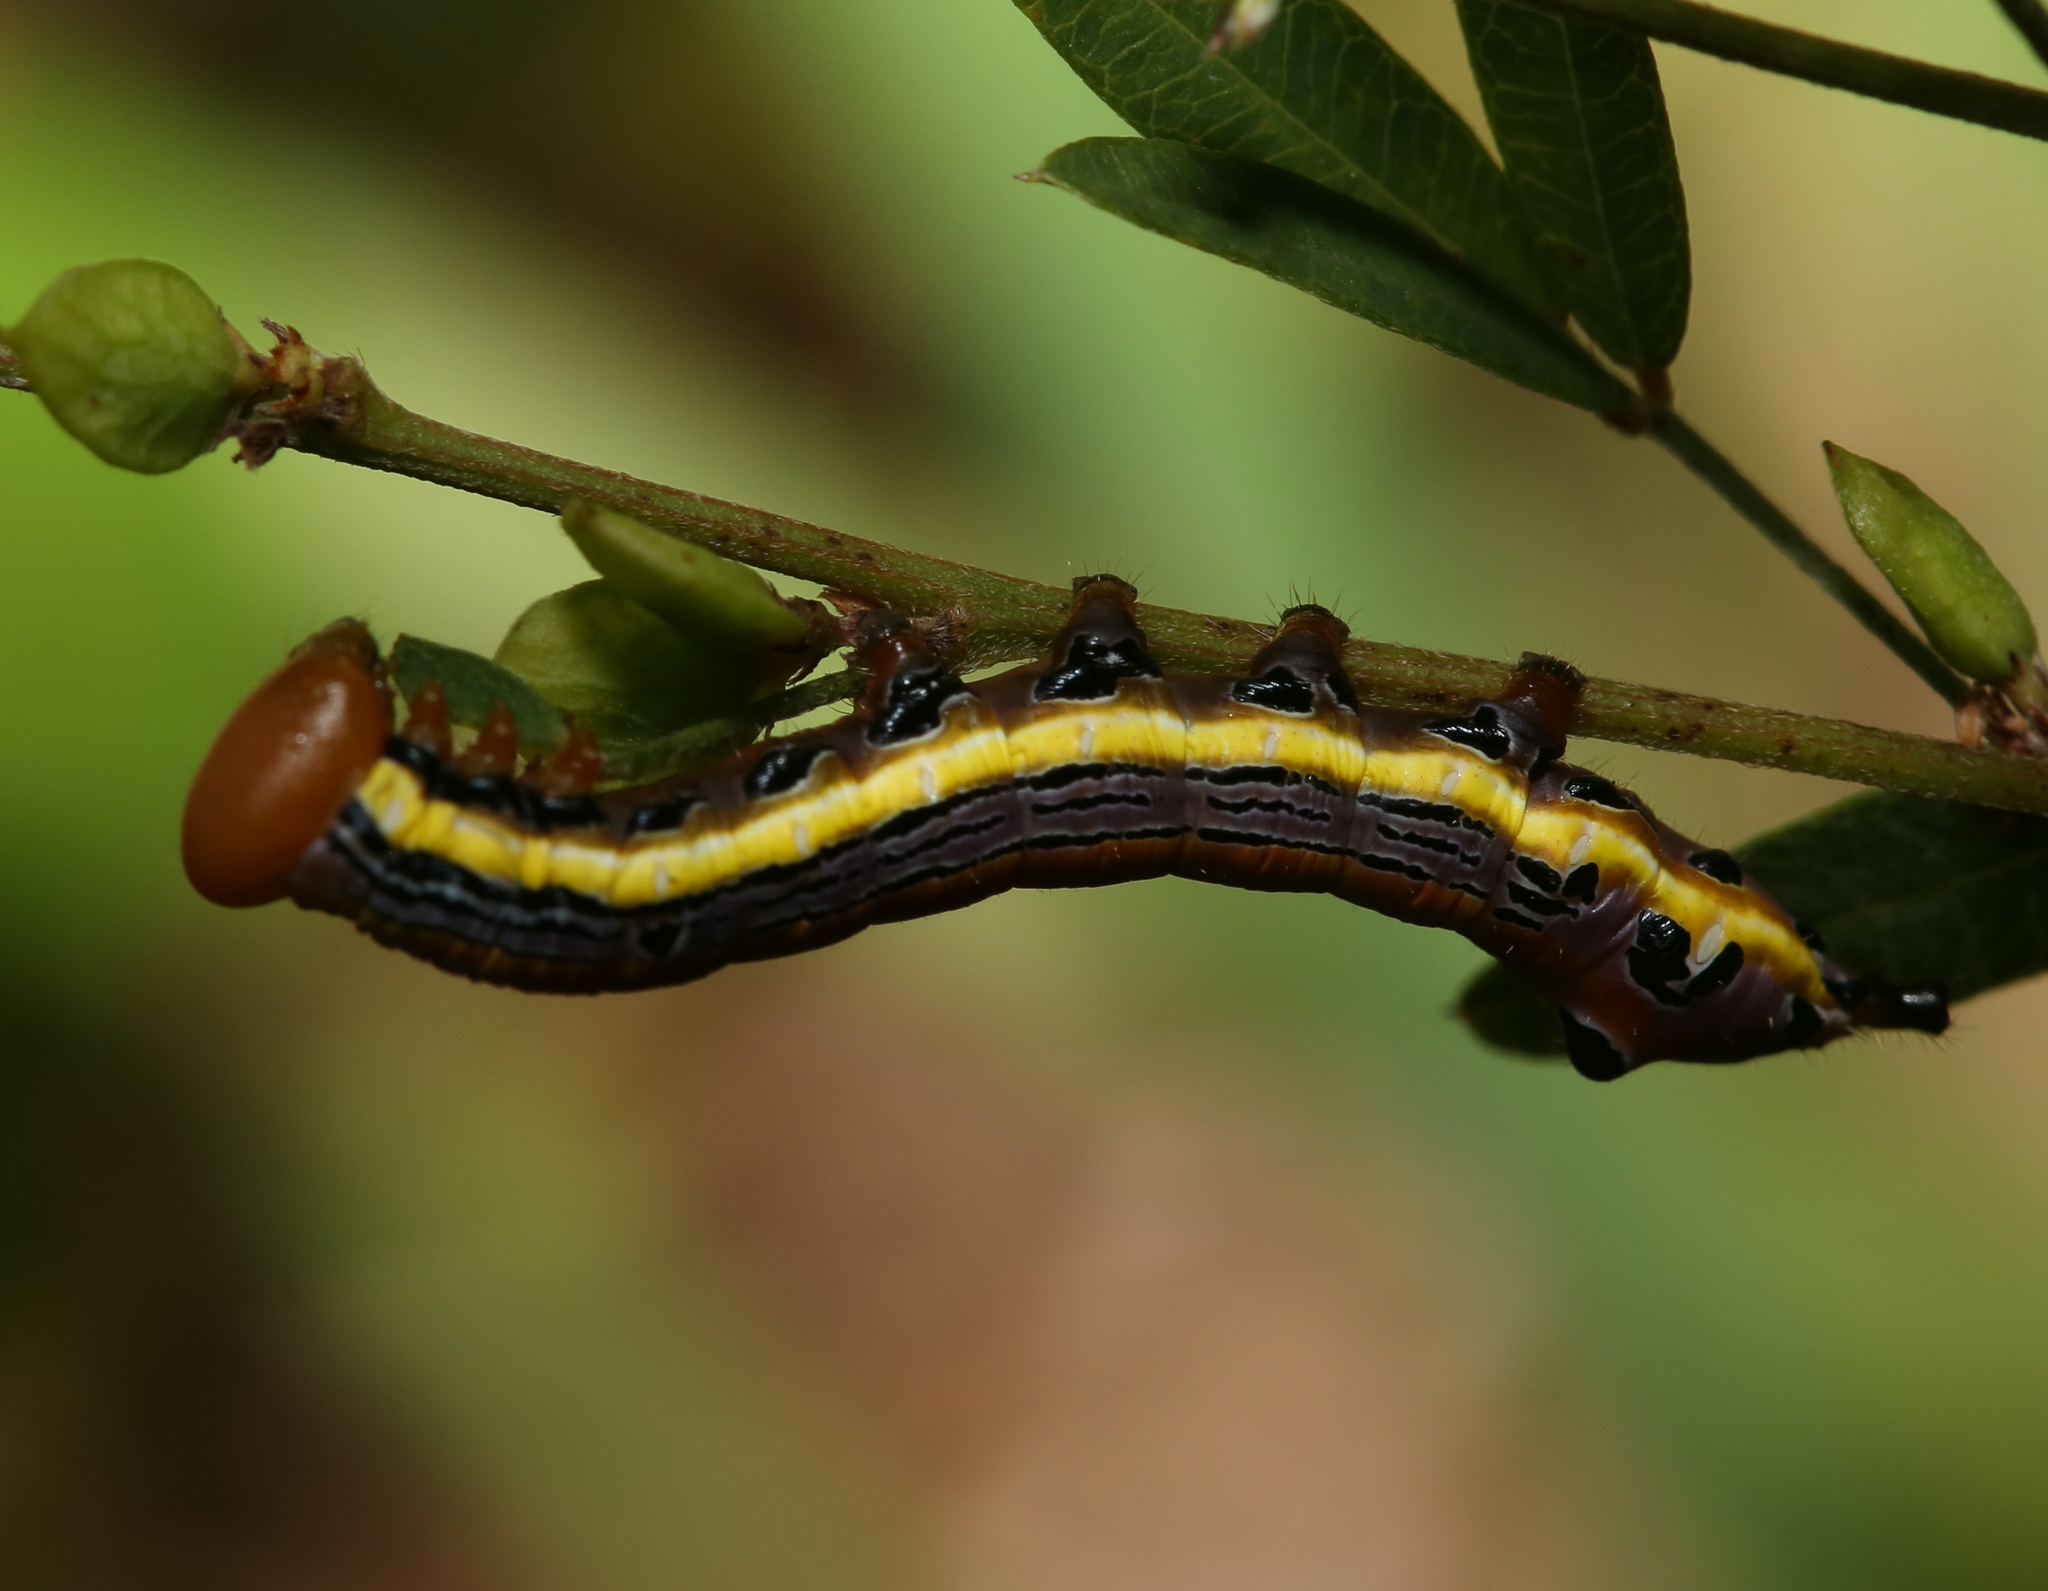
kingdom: Animalia
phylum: Arthropoda
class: Insecta
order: Lepidoptera
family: Notodontidae
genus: Dasylophia
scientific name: Dasylophia anguina
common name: Black-spotted prominent
